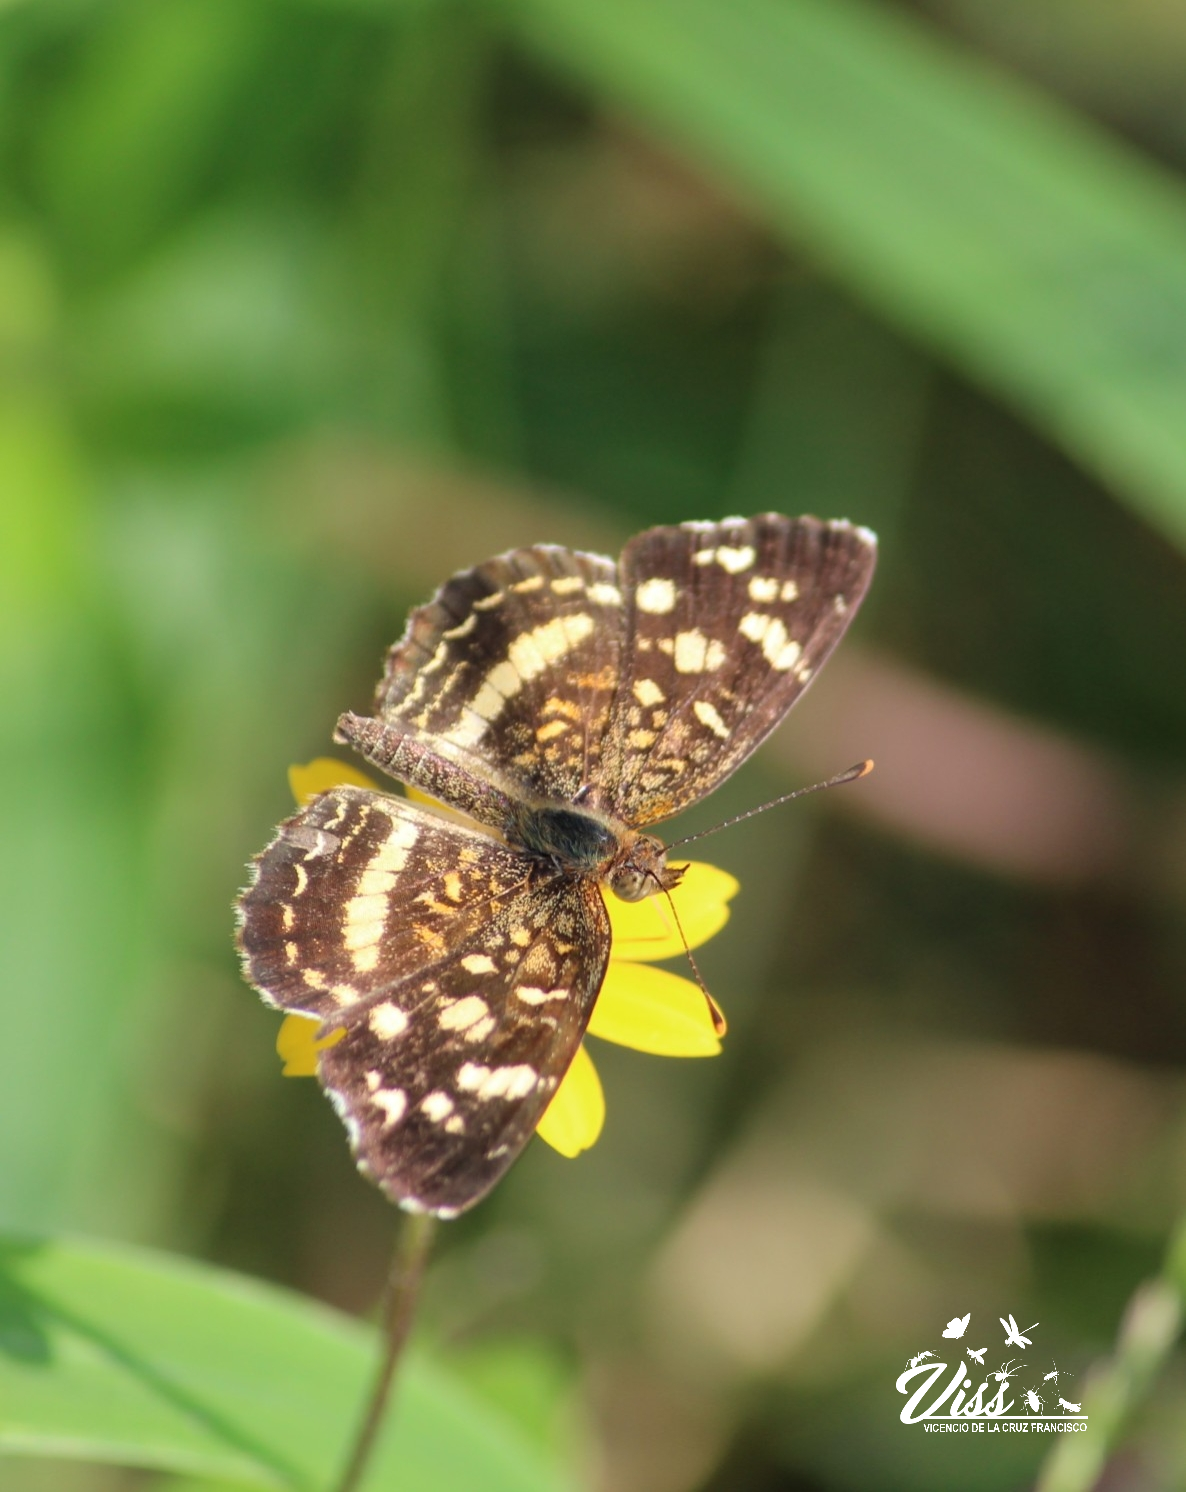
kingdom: Animalia
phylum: Arthropoda
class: Insecta
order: Lepidoptera
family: Nymphalidae
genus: Anthanassa
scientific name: Anthanassa tulcis
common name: Pale-banded crescent
